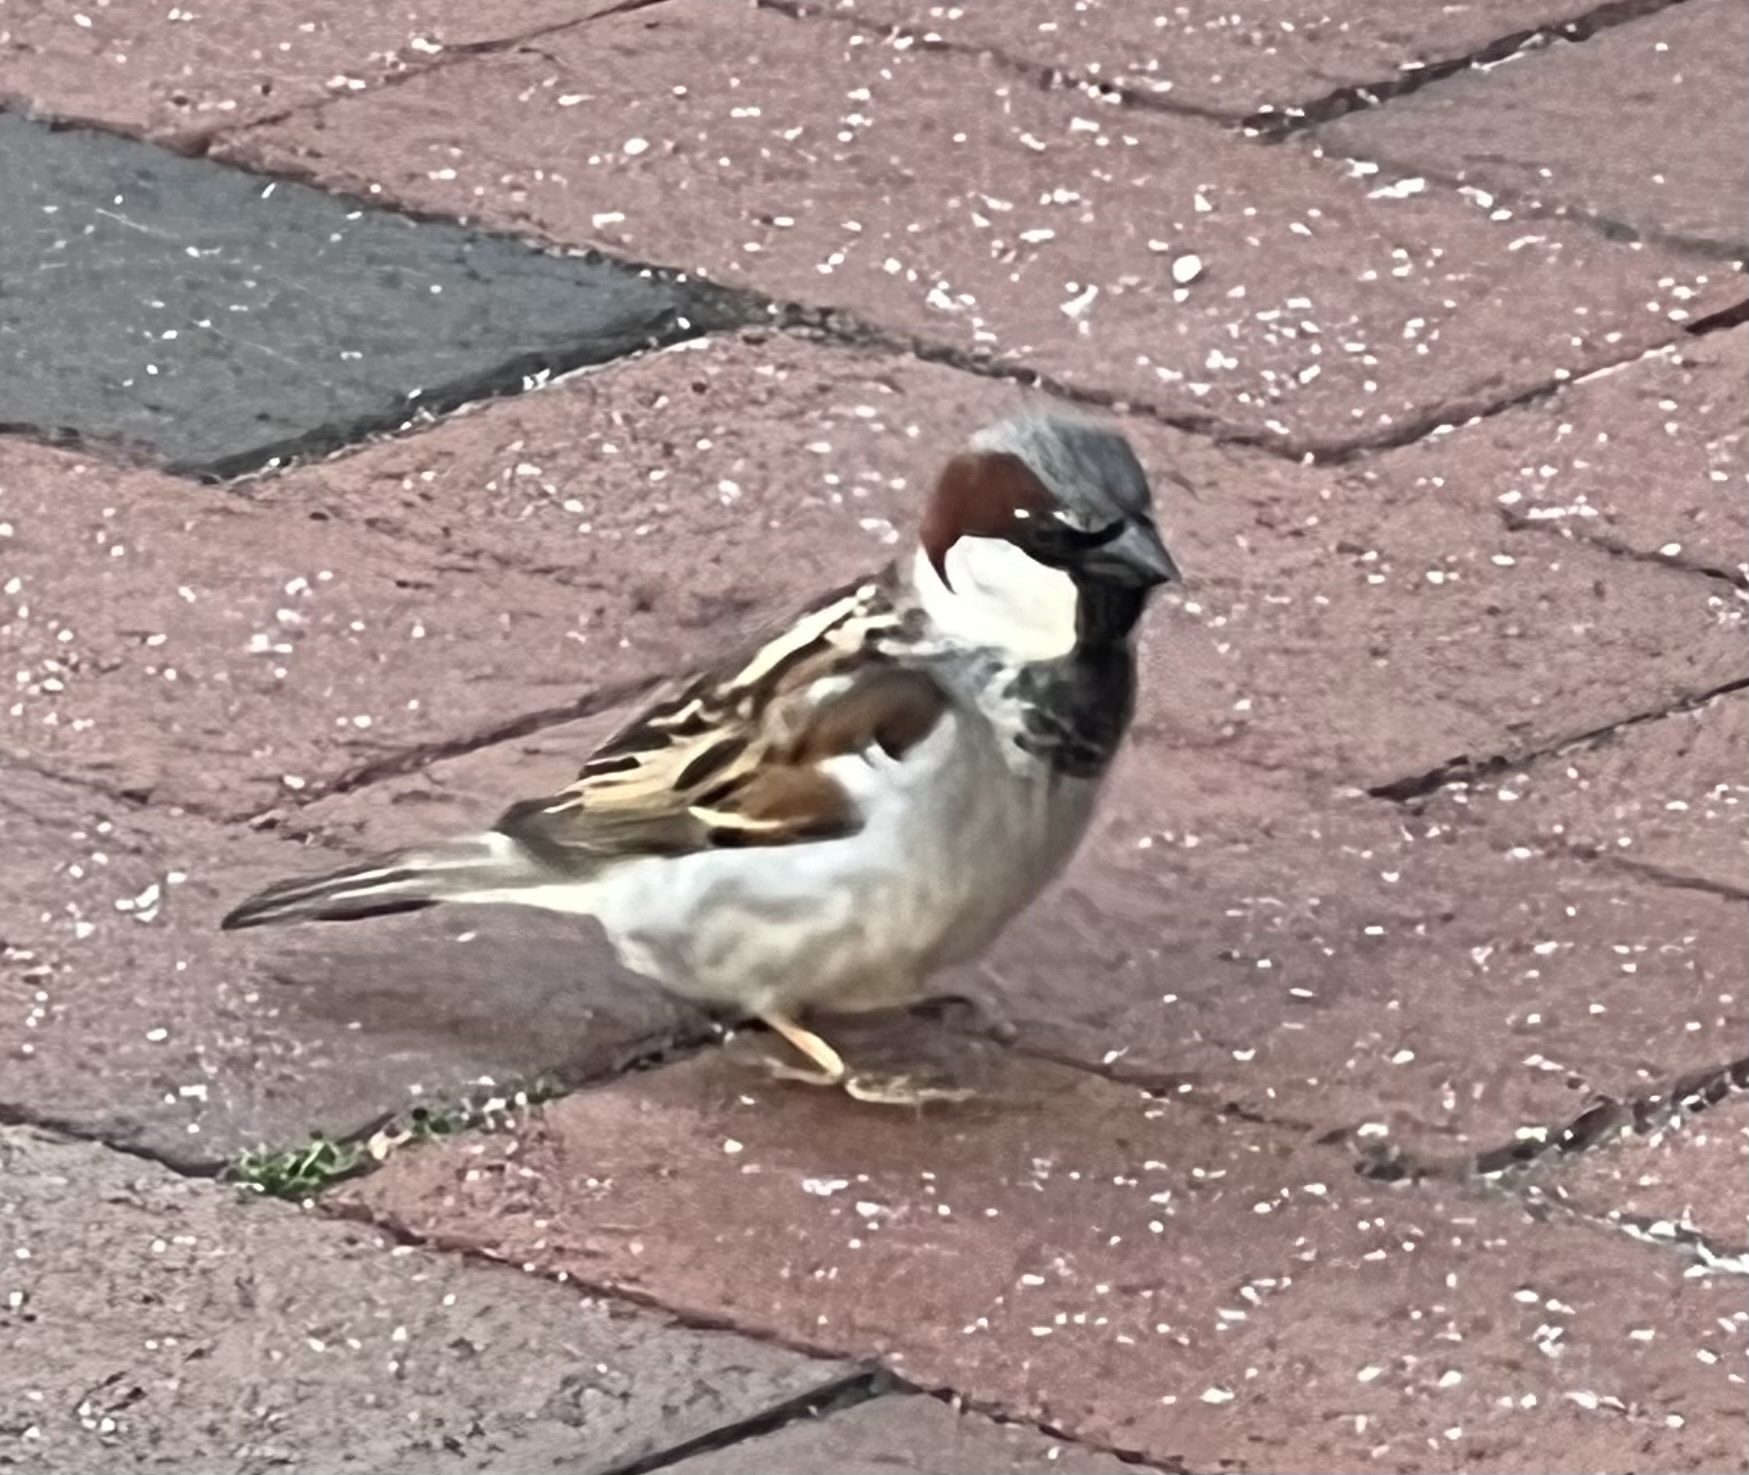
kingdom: Animalia
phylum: Chordata
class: Aves
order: Passeriformes
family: Passeridae
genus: Passer
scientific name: Passer domesticus
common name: House sparrow
